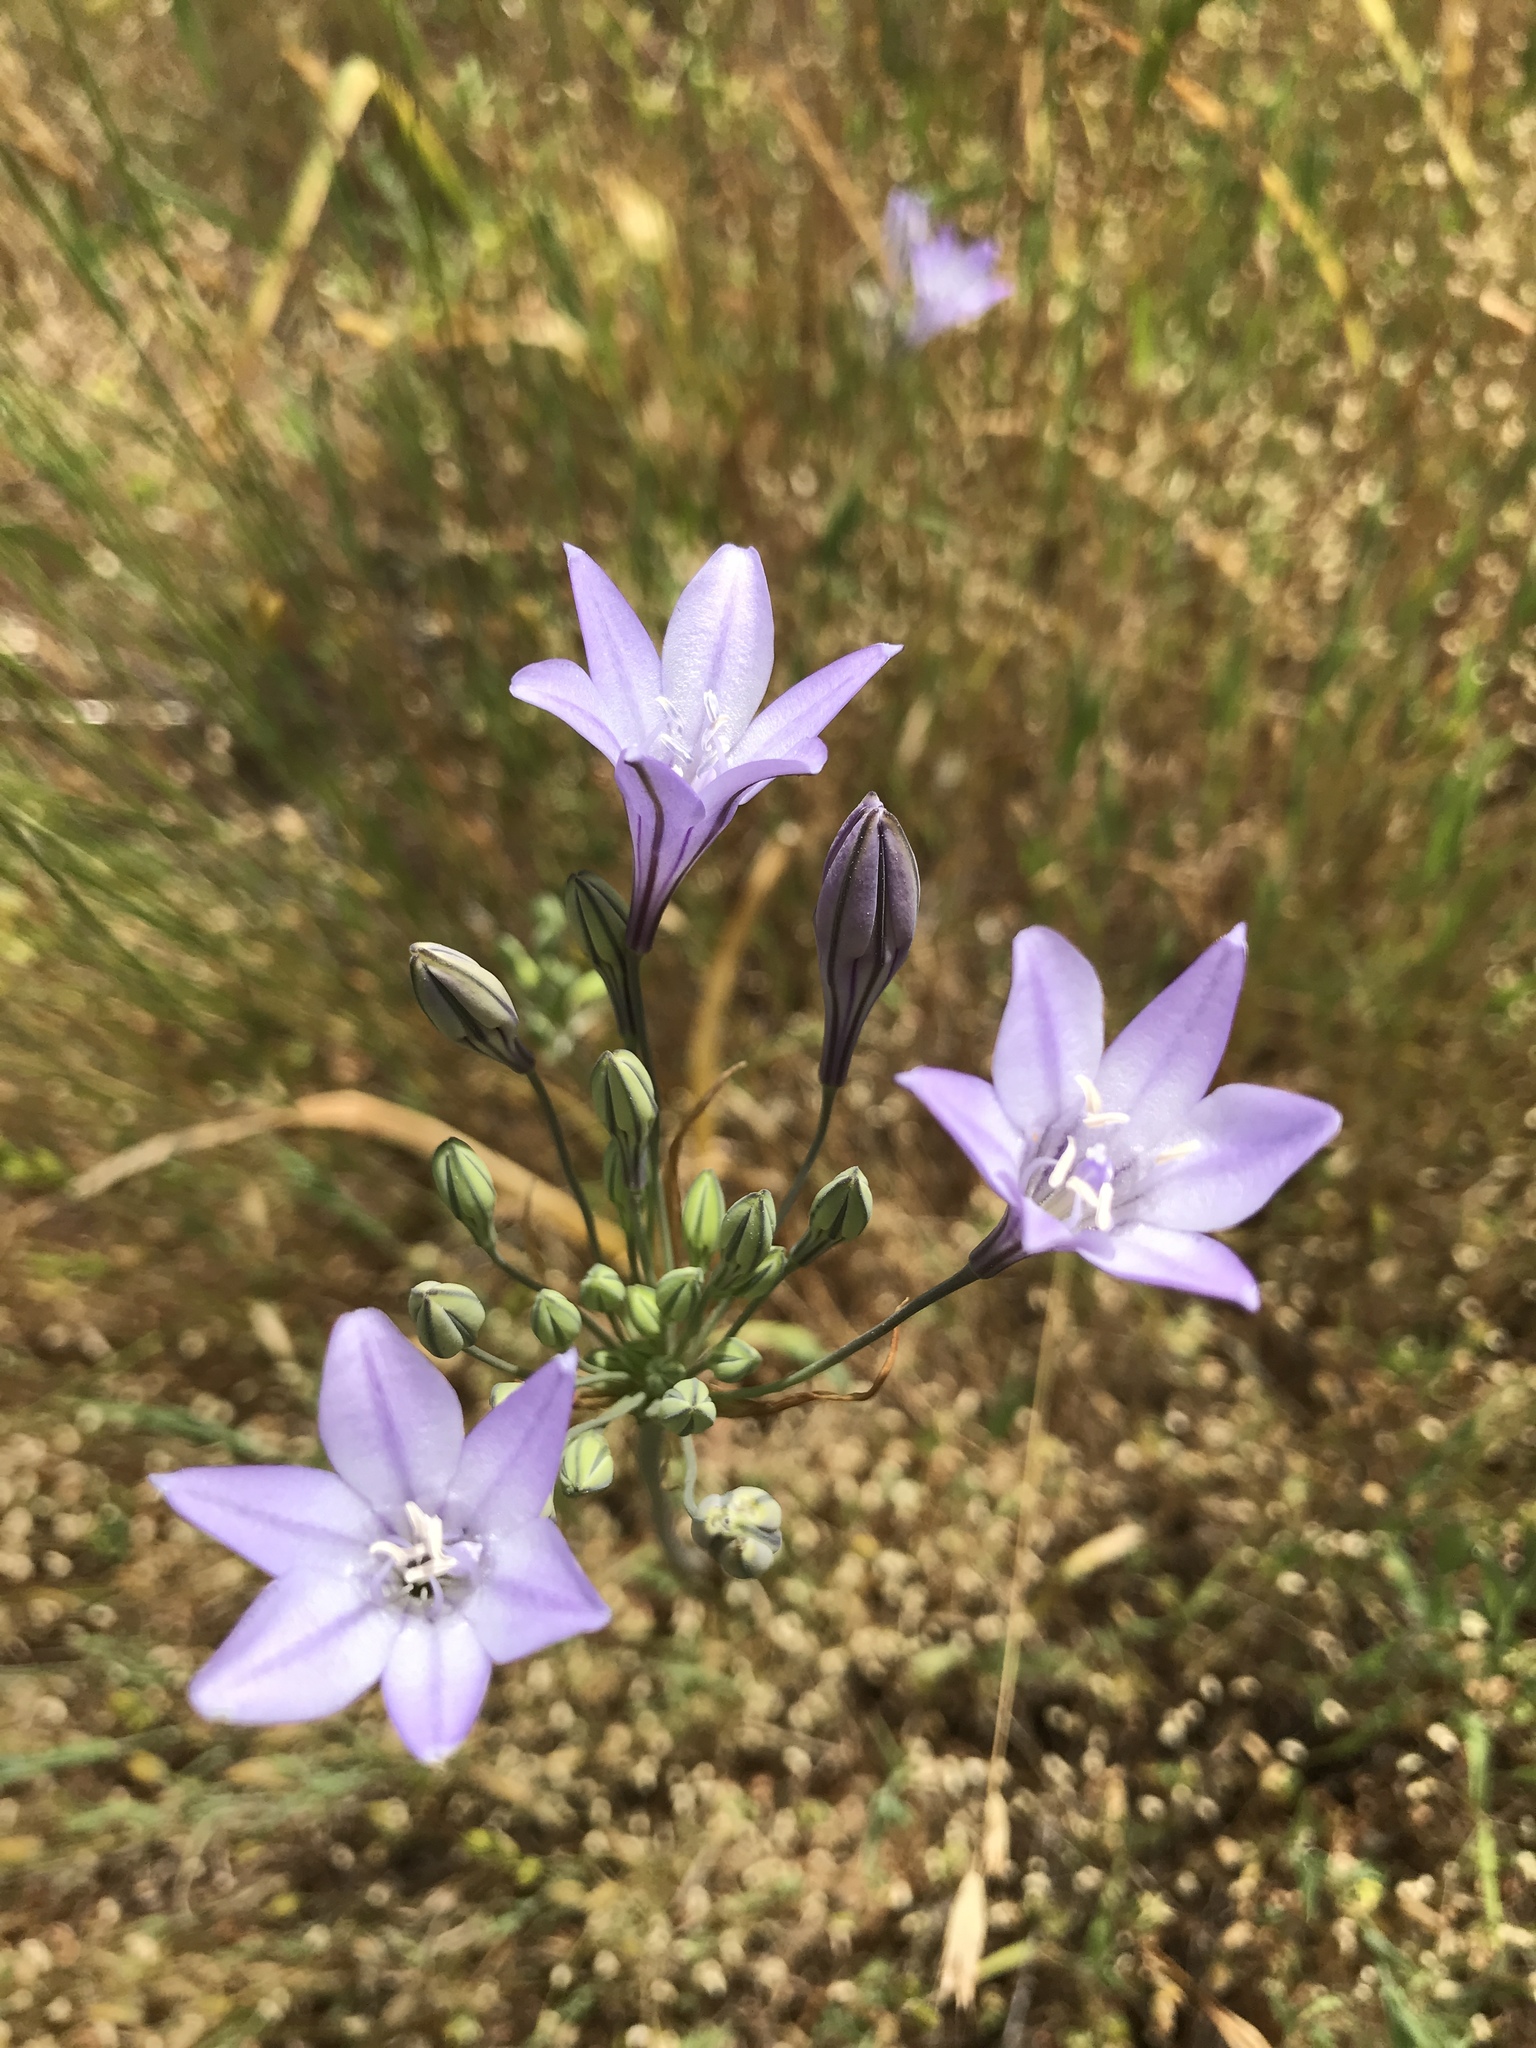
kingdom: Plantae
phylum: Tracheophyta
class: Liliopsida
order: Asparagales
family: Asparagaceae
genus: Triteleia
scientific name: Triteleia laxa
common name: Triplet-lily
